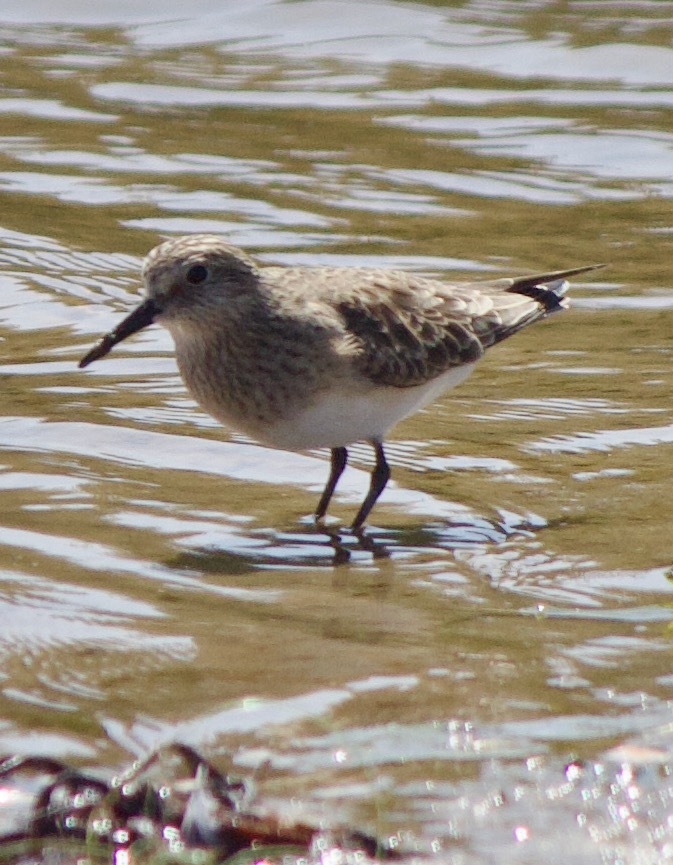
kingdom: Animalia
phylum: Chordata
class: Aves
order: Charadriiformes
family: Scolopacidae
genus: Calidris
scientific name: Calidris bairdii
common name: Baird's sandpiper
